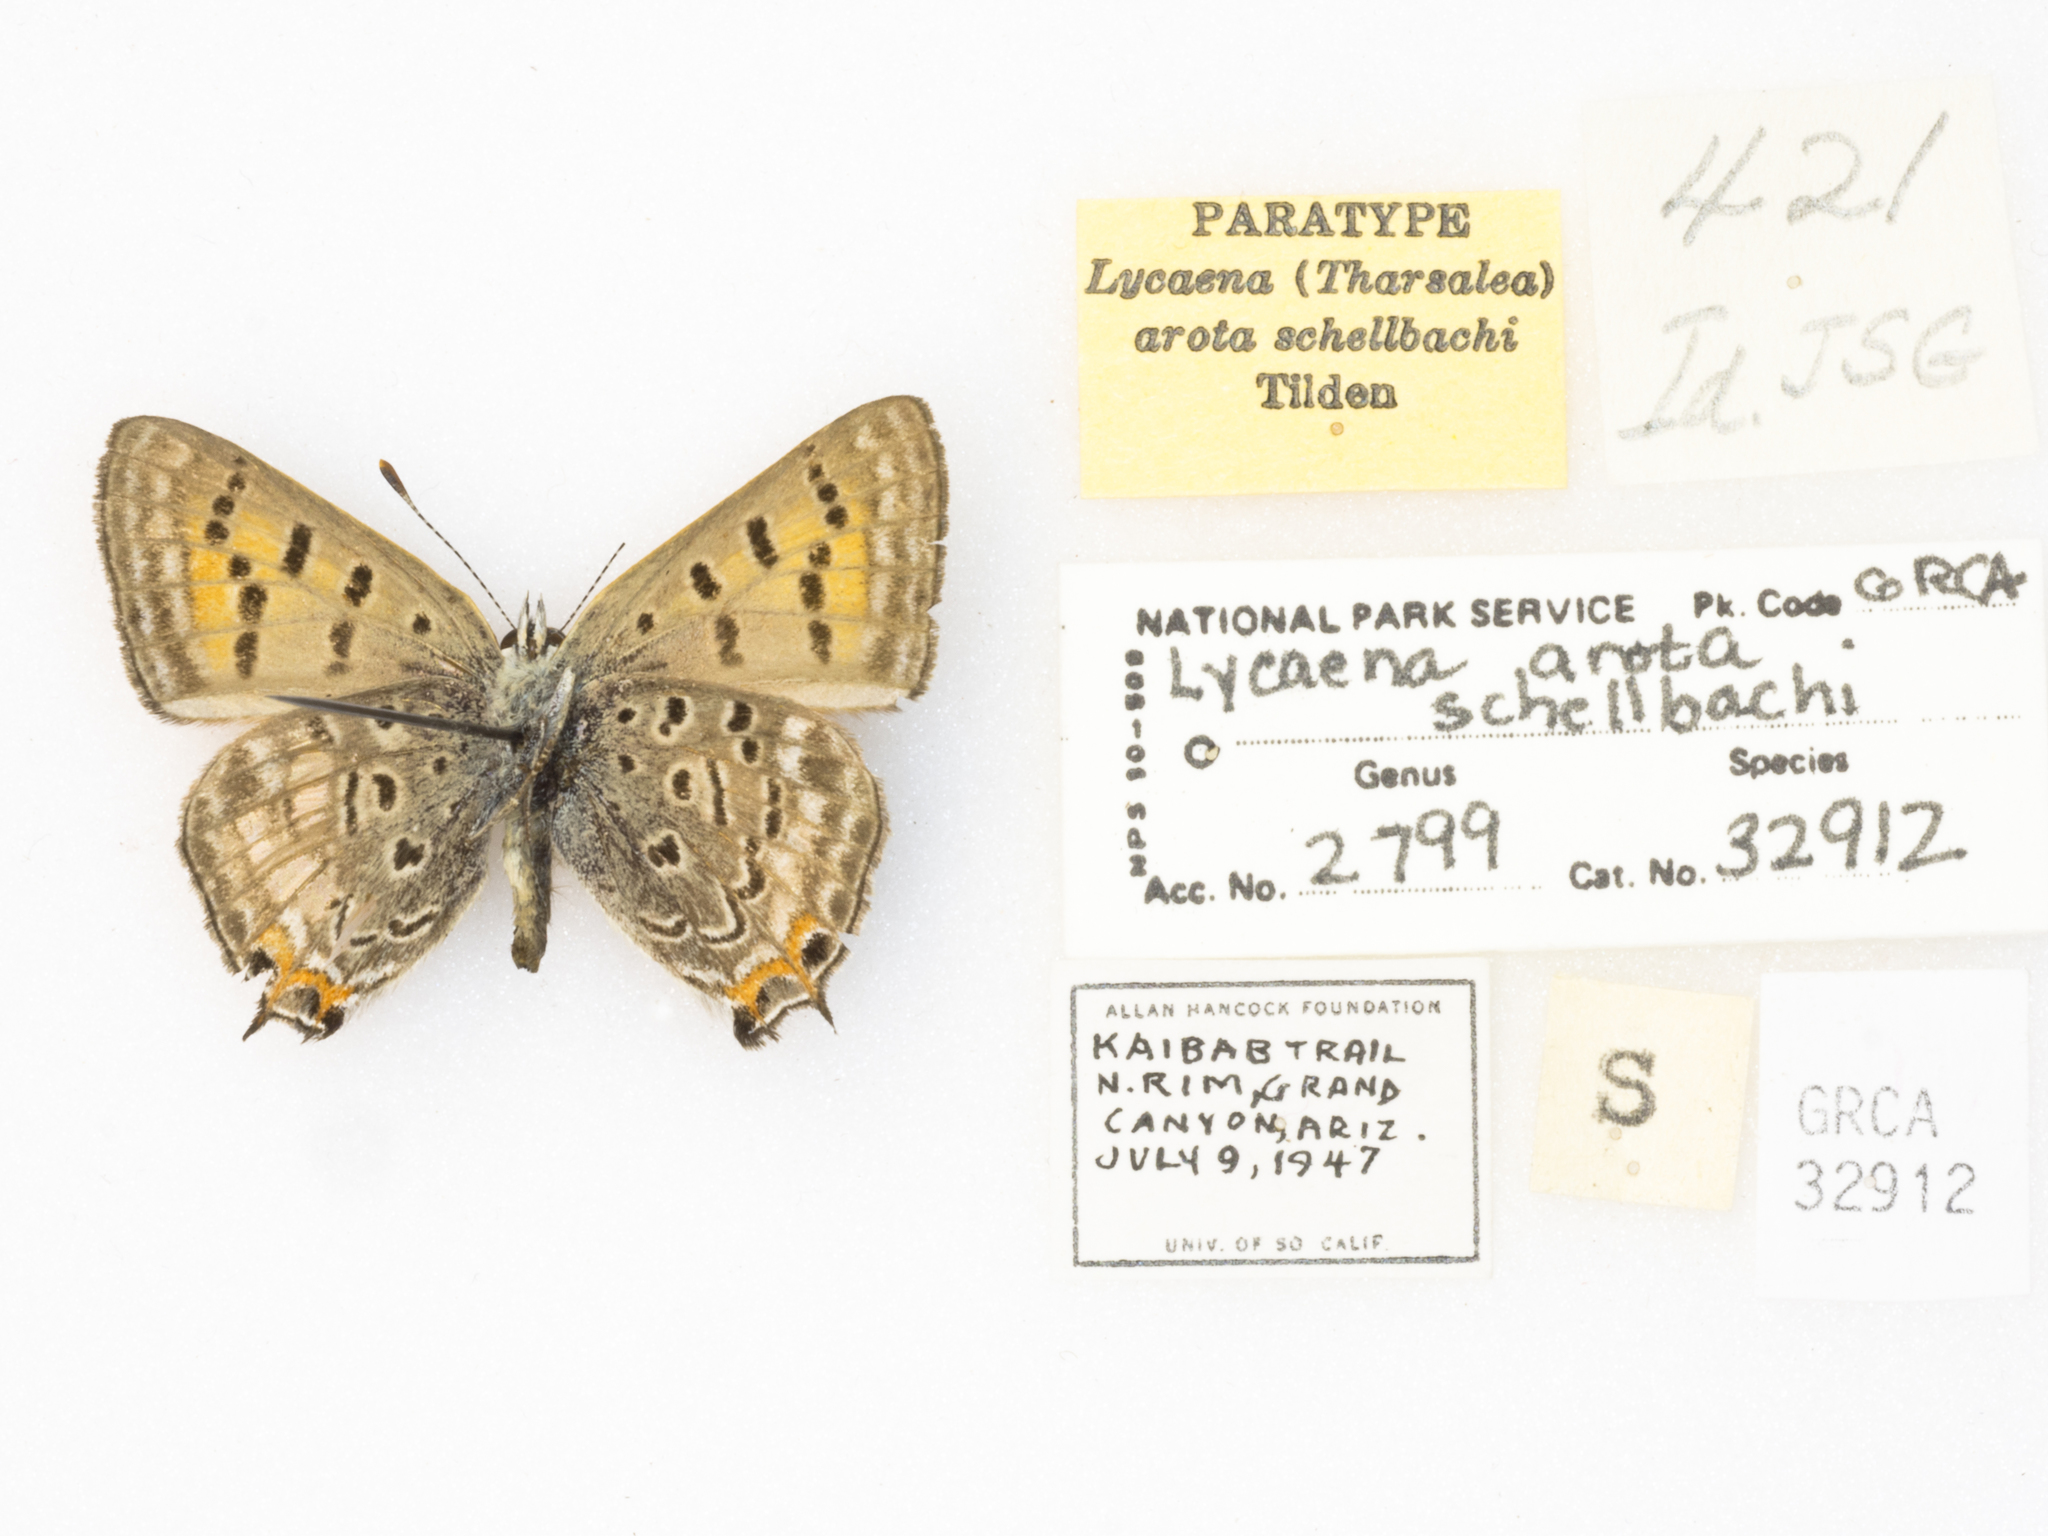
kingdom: Animalia
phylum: Arthropoda
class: Insecta
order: Lepidoptera
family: Lycaenidae
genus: Tharsalea
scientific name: Tharsalea arota
